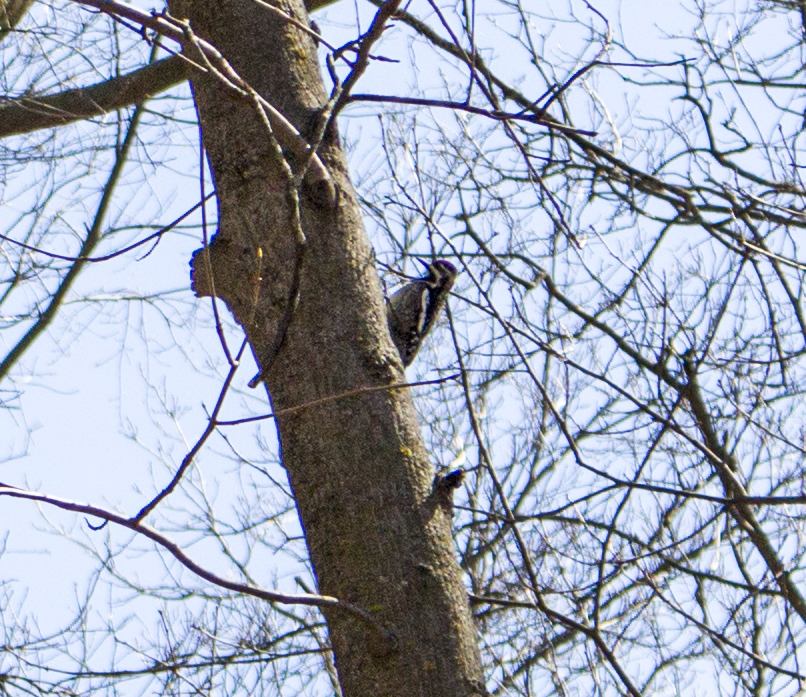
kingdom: Animalia
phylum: Chordata
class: Aves
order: Piciformes
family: Picidae
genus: Sphyrapicus
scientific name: Sphyrapicus varius
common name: Yellow-bellied sapsucker
